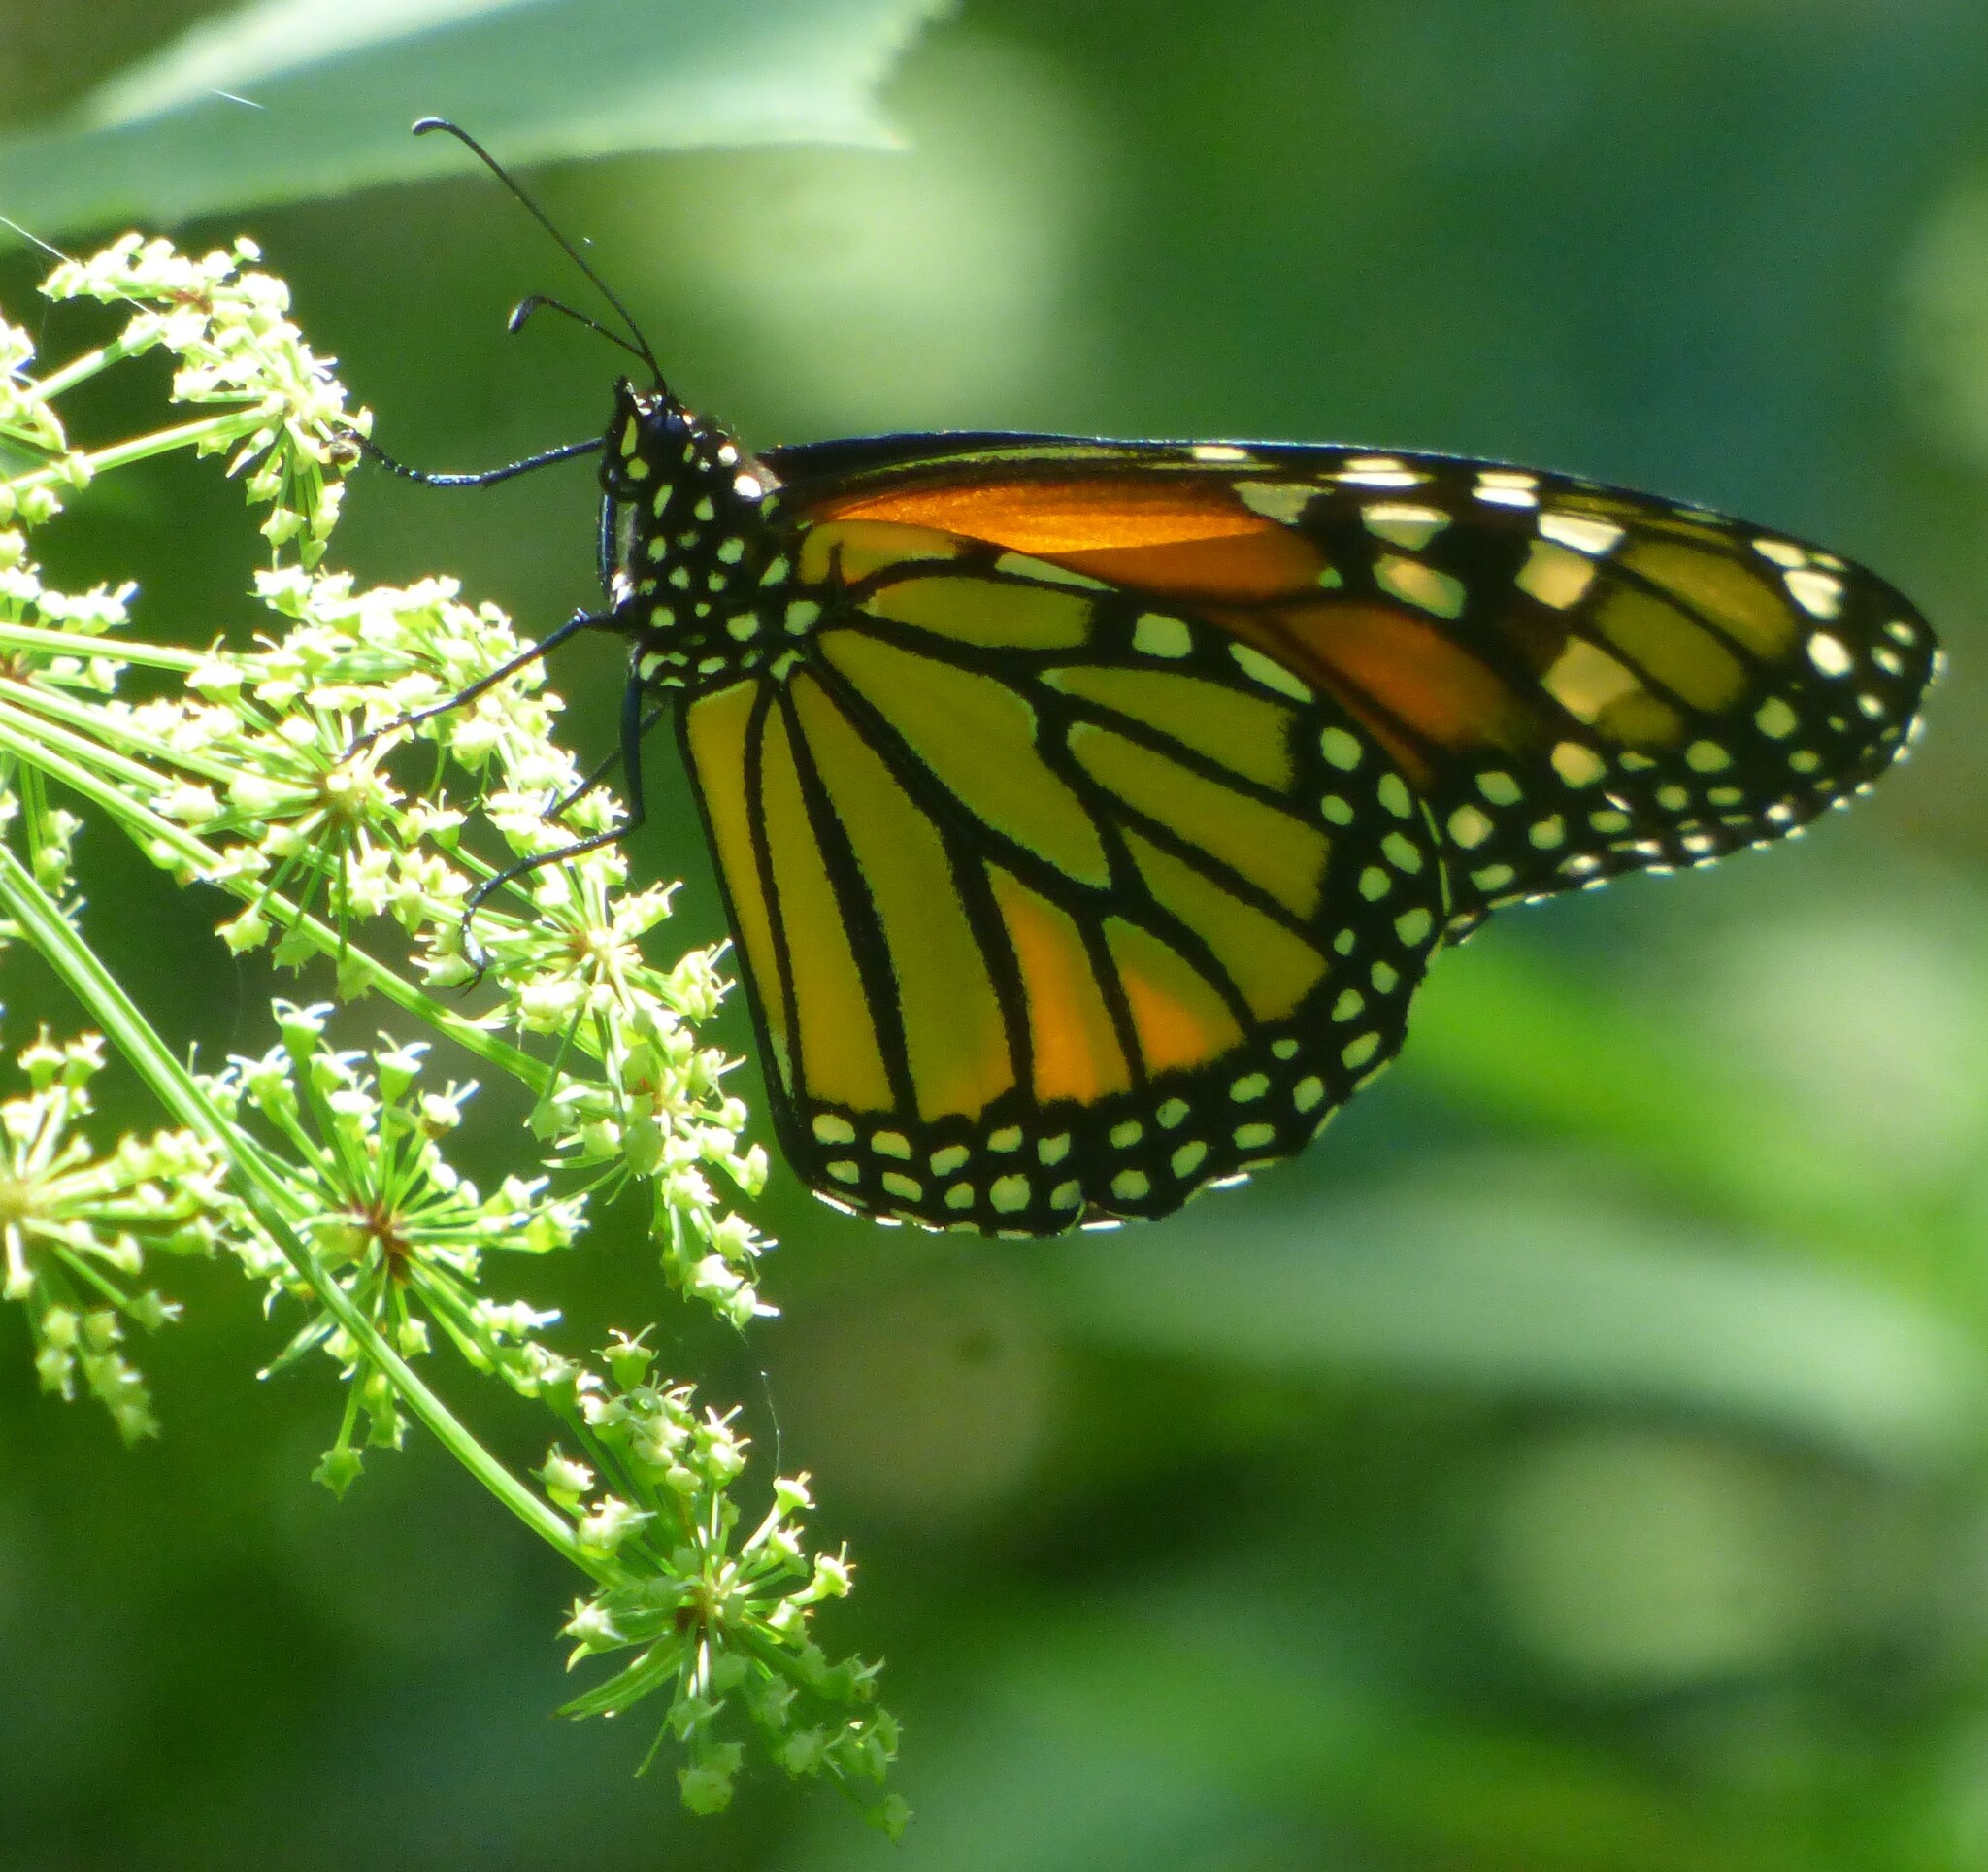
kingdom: Animalia
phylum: Arthropoda
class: Insecta
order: Lepidoptera
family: Nymphalidae
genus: Danaus
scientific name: Danaus plexippus
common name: Monarch
